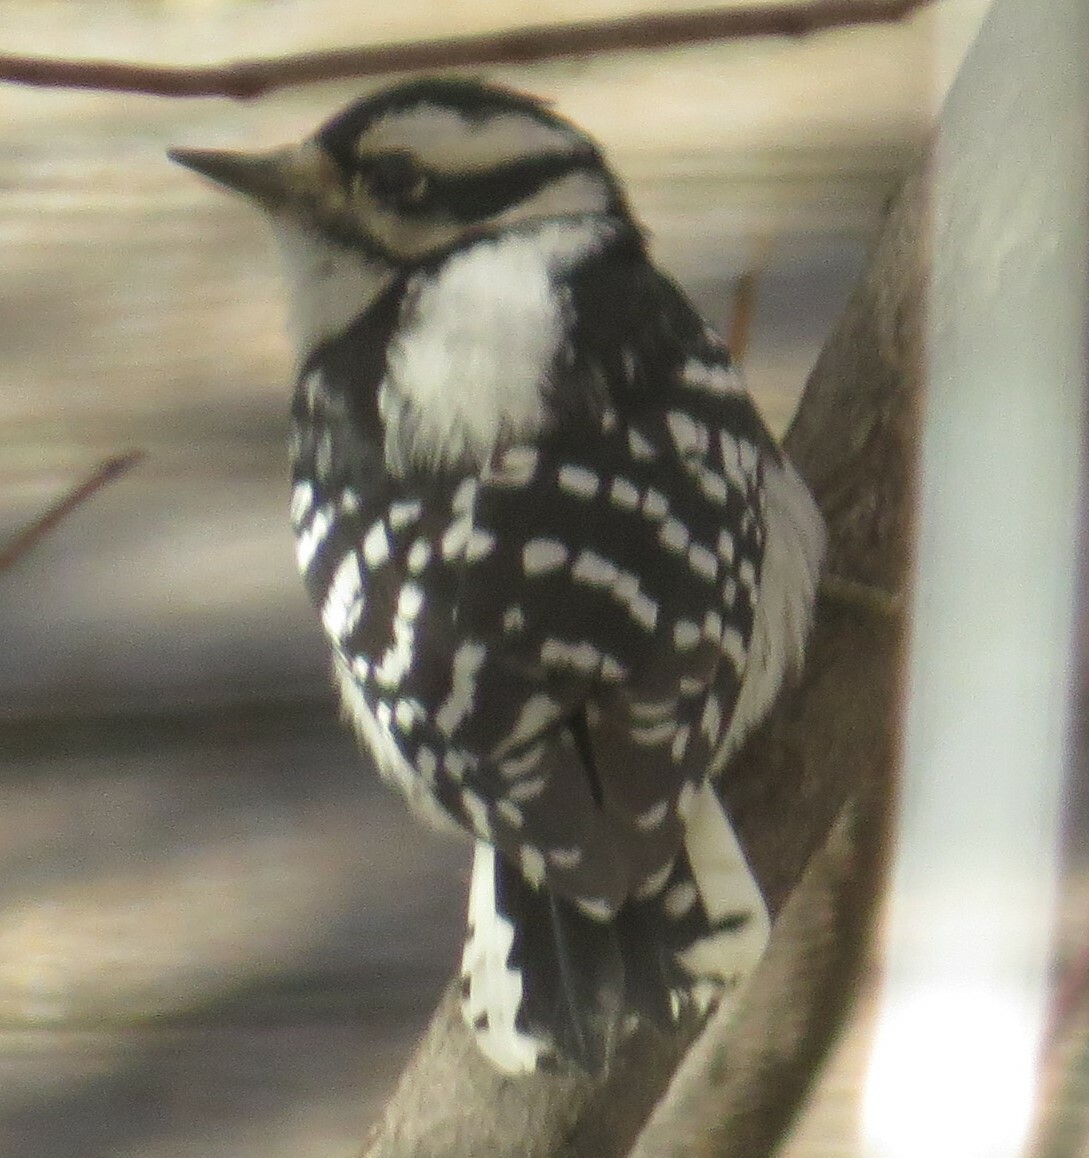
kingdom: Animalia
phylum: Chordata
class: Aves
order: Piciformes
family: Picidae
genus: Dryobates
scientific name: Dryobates pubescens
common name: Downy woodpecker
